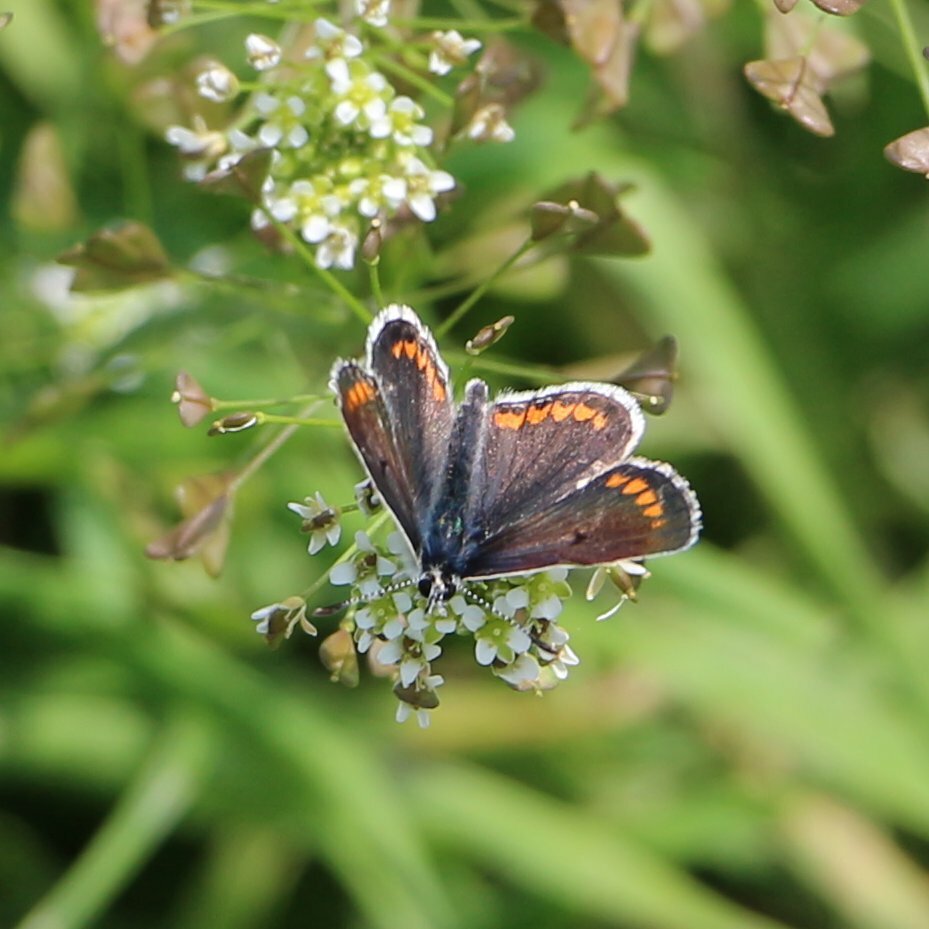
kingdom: Animalia
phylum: Arthropoda
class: Insecta
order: Lepidoptera
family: Lycaenidae
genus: Aricia
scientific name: Aricia agestis
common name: Brown argus
